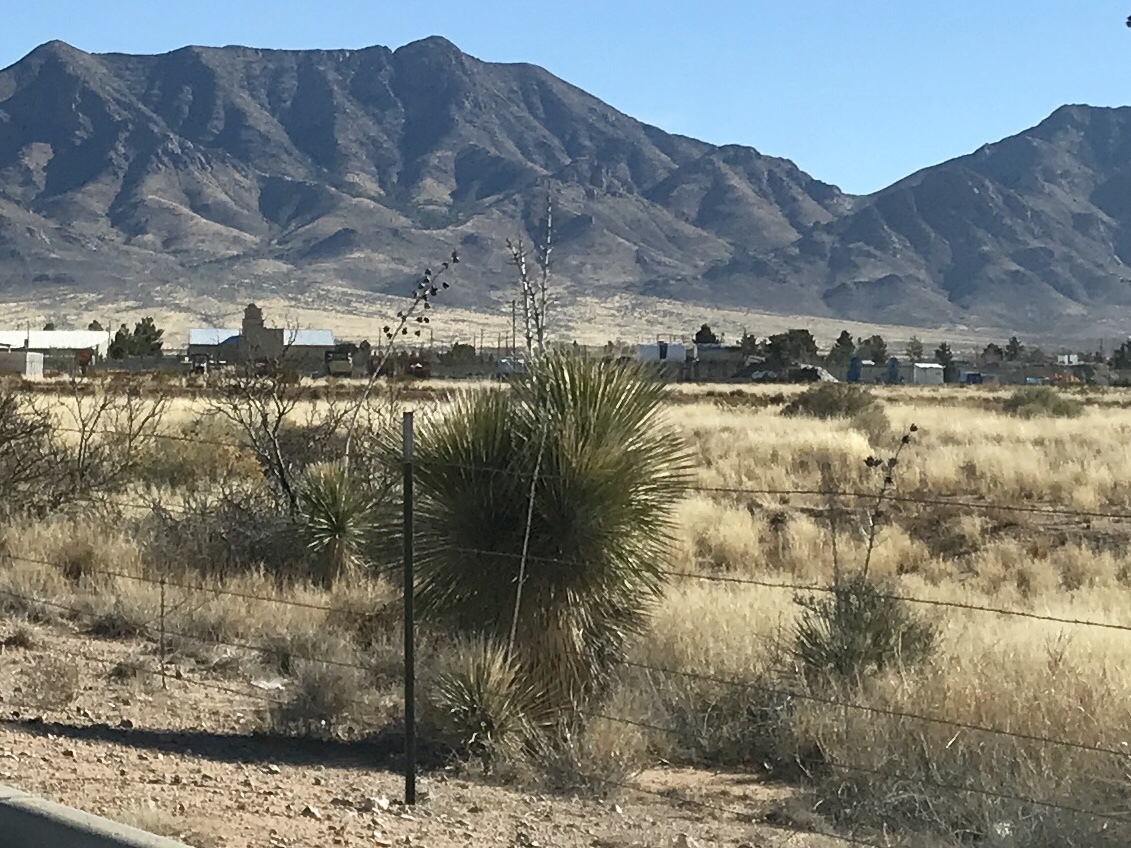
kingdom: Plantae
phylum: Tracheophyta
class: Liliopsida
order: Asparagales
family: Asparagaceae
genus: Yucca
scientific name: Yucca elata
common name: Palmella
